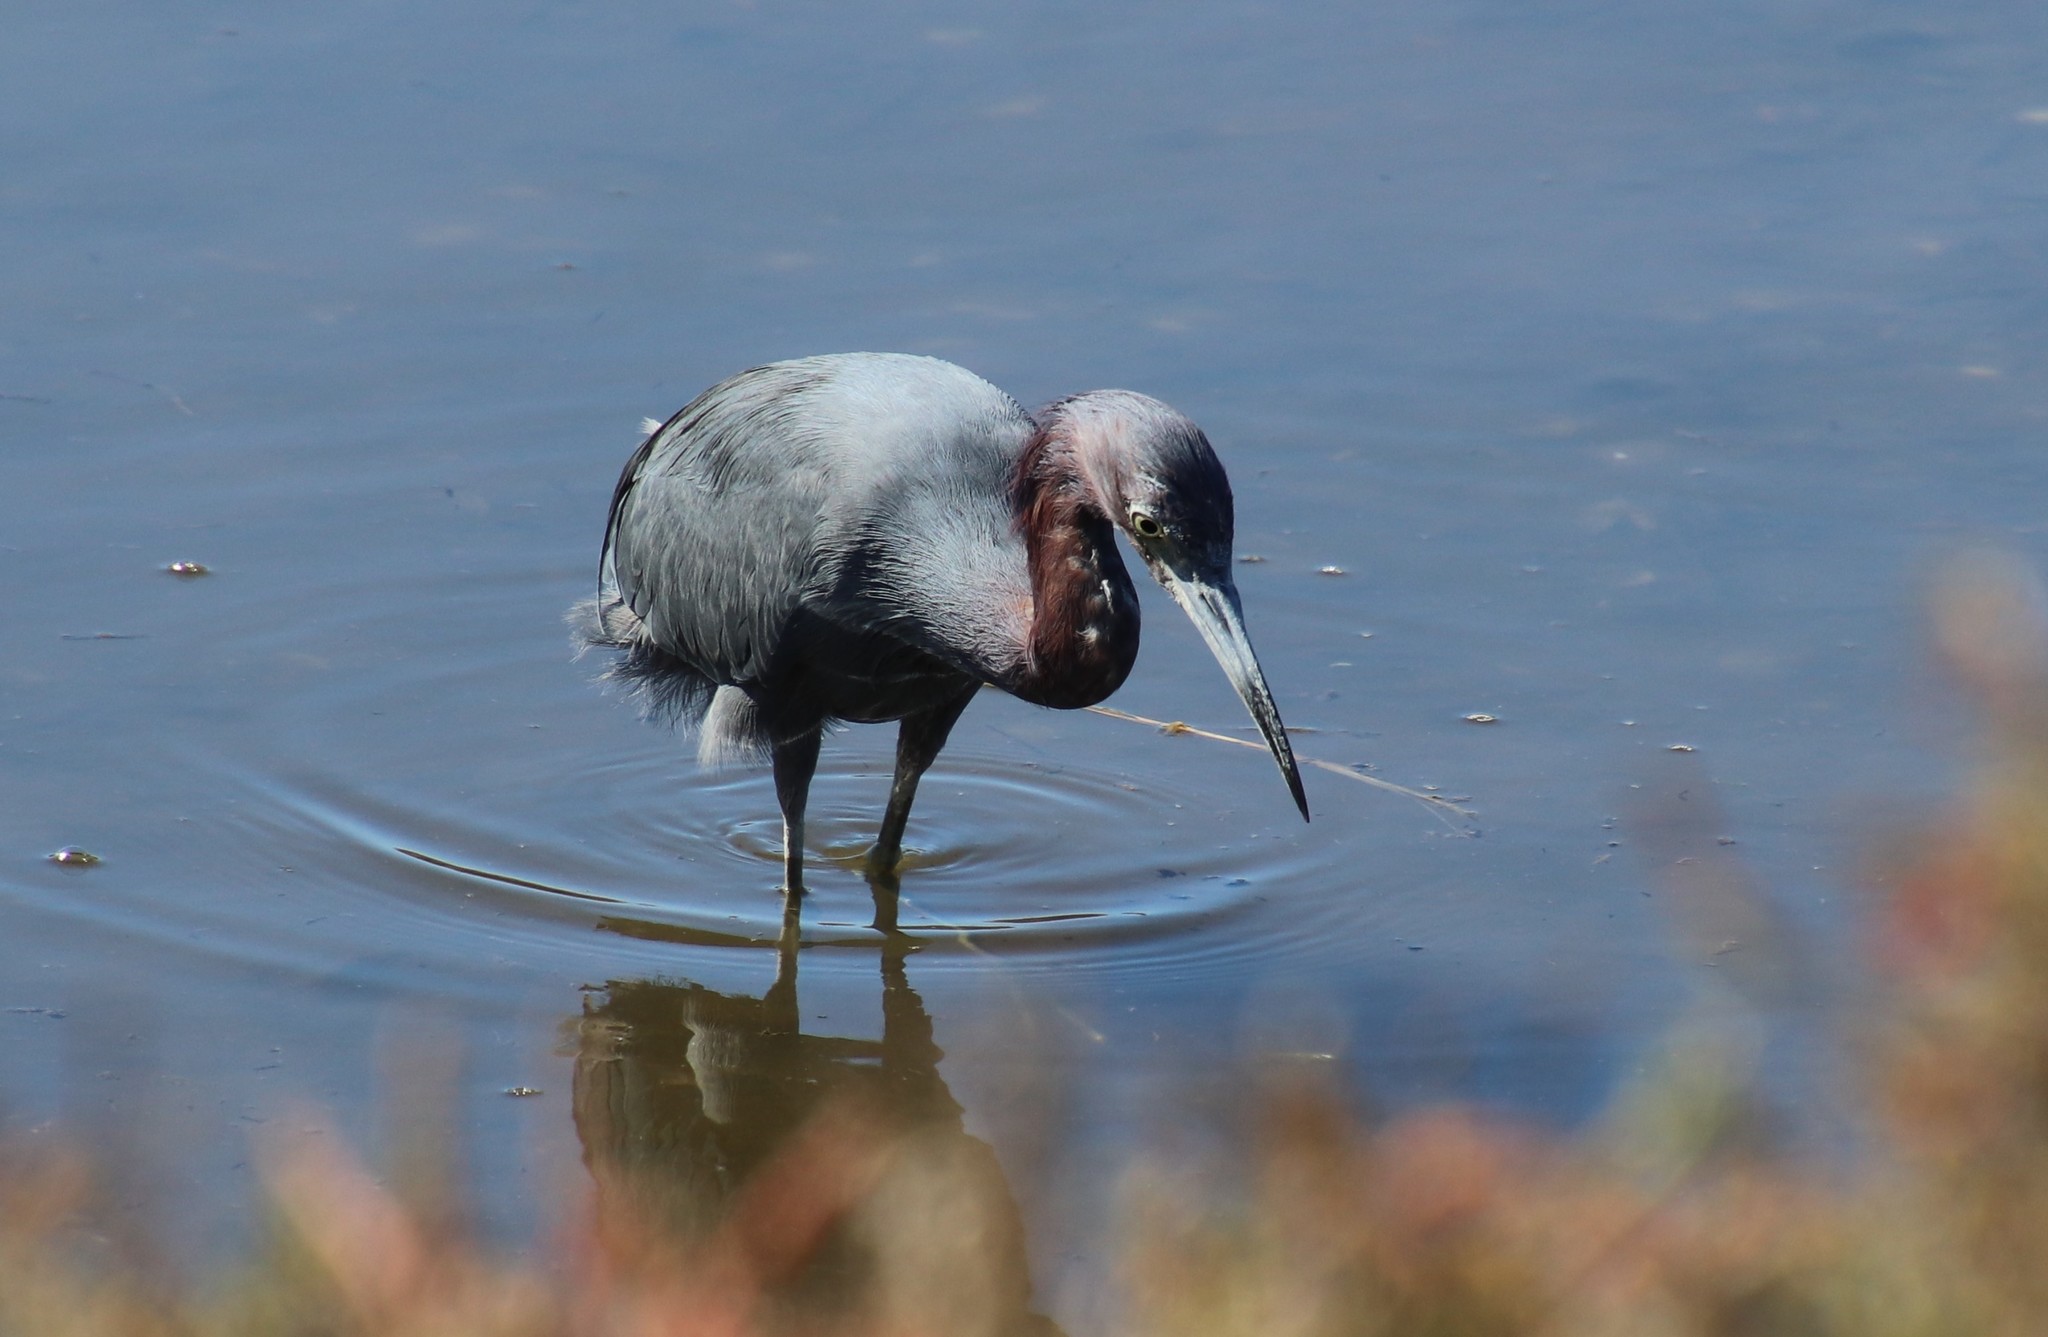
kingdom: Animalia
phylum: Chordata
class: Aves
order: Pelecaniformes
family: Ardeidae
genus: Egretta
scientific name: Egretta caerulea
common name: Little blue heron
